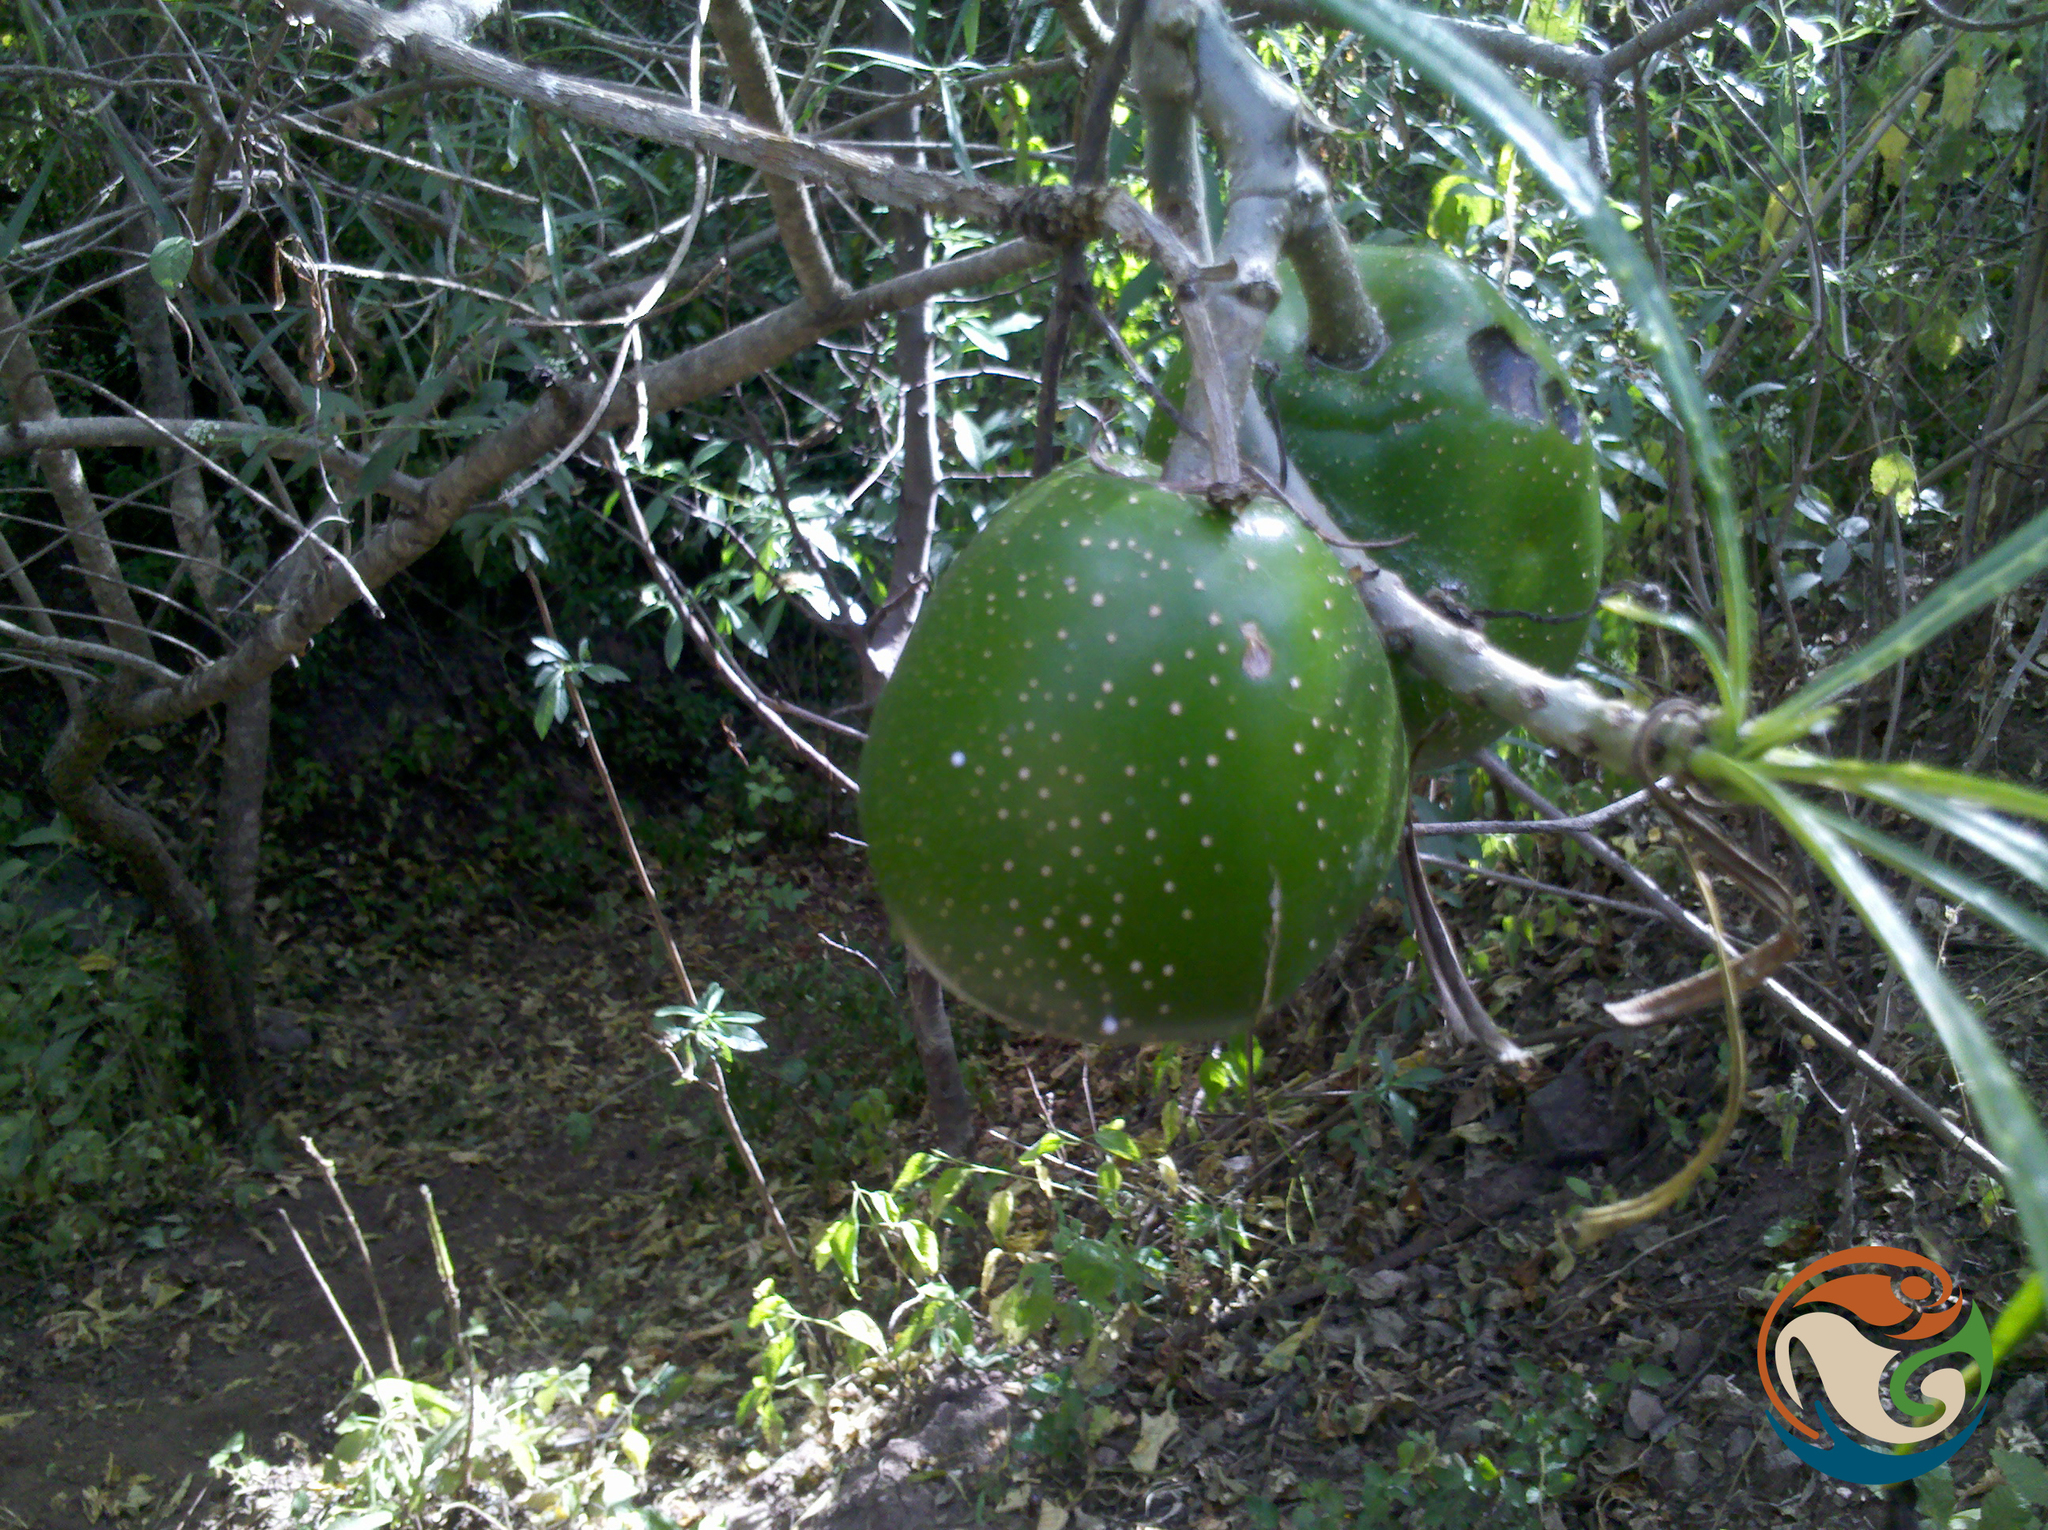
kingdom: Plantae
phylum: Tracheophyta
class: Magnoliopsida
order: Gentianales
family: Apocynaceae
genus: Cascabela
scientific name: Cascabela thevetioides
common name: Yellow oleander
